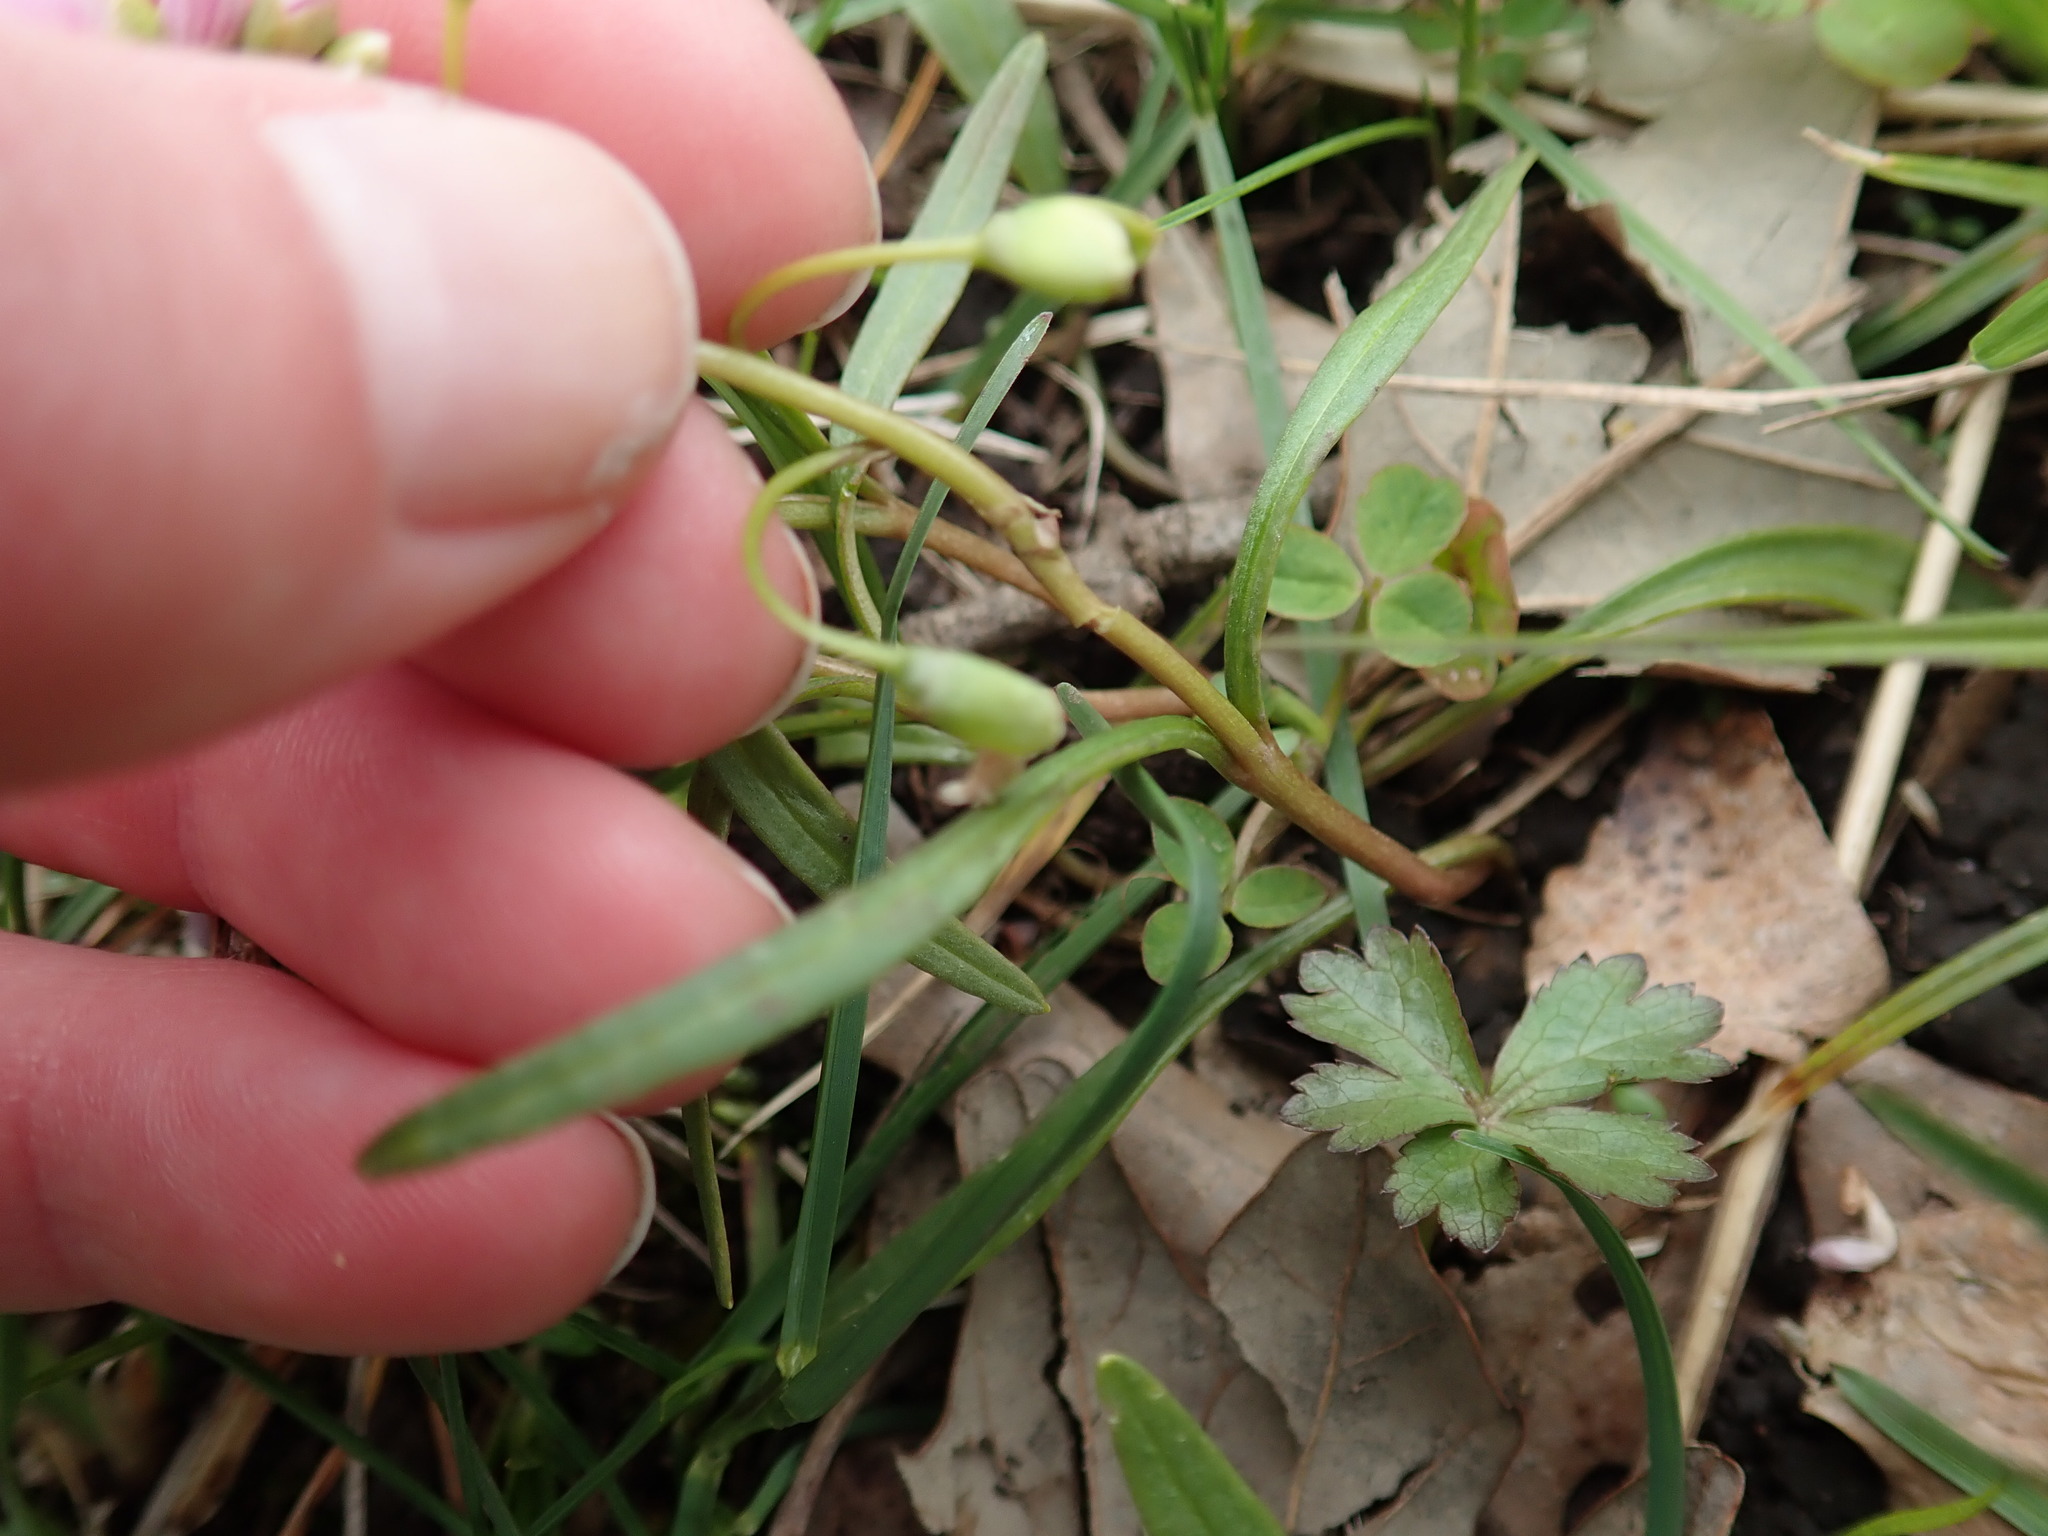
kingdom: Plantae
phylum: Tracheophyta
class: Magnoliopsida
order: Caryophyllales
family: Montiaceae
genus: Claytonia
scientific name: Claytonia virginica
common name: Virginia springbeauty
